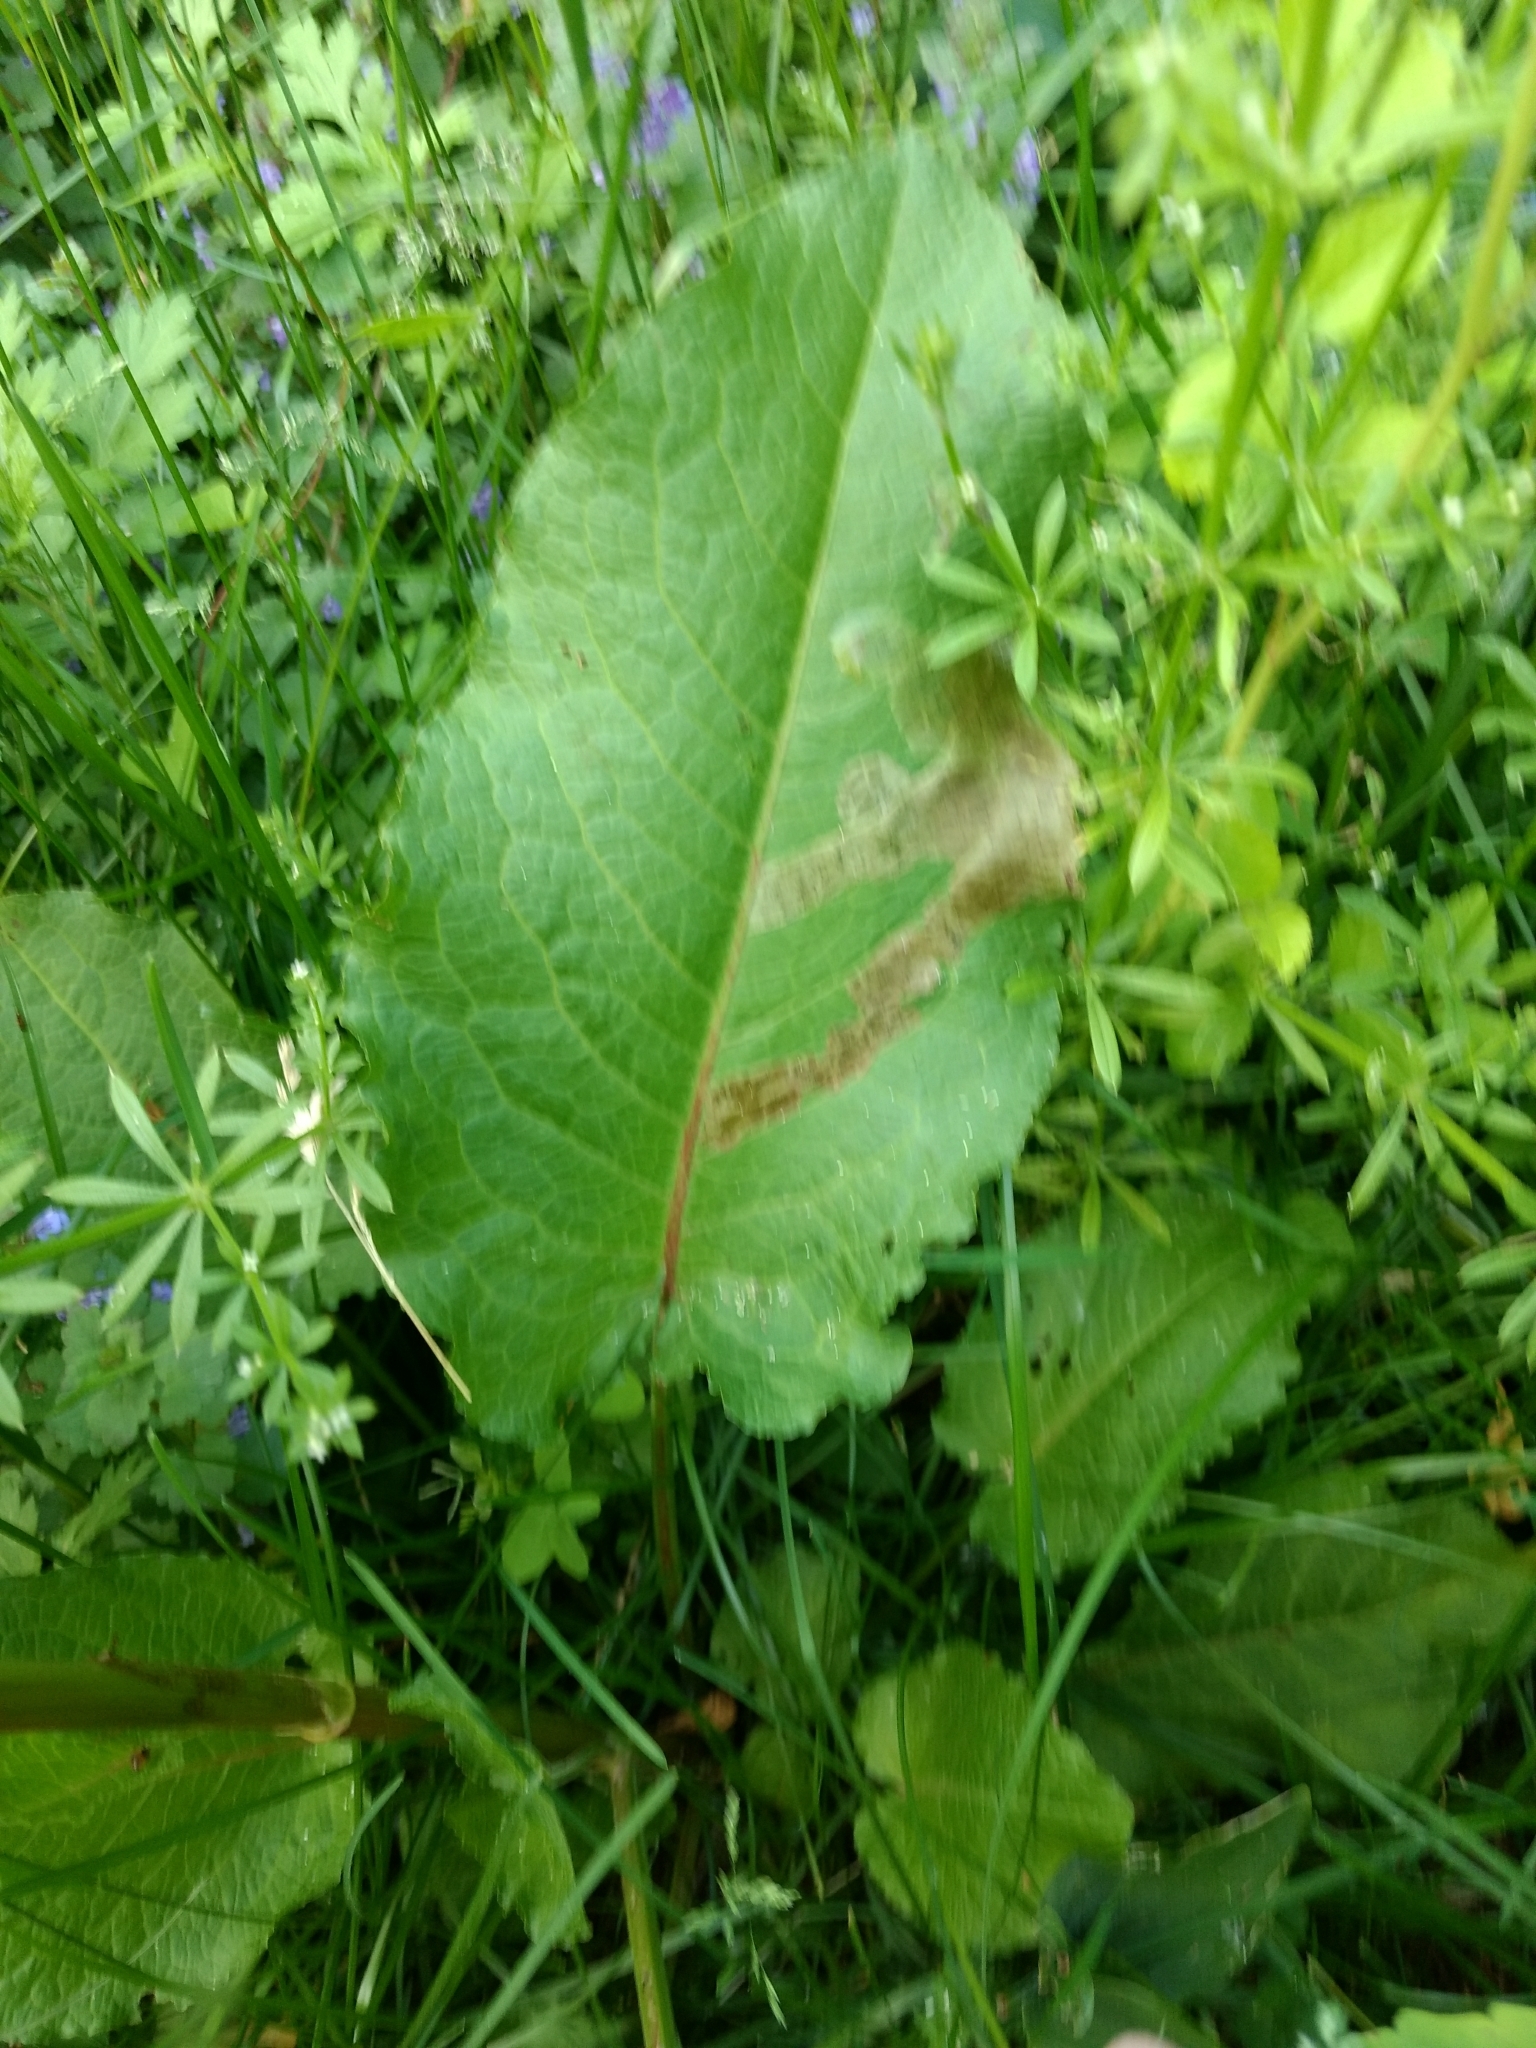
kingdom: Plantae
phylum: Tracheophyta
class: Magnoliopsida
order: Caryophyllales
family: Polygonaceae
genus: Rumex
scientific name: Rumex obtusifolius
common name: Bitter dock
